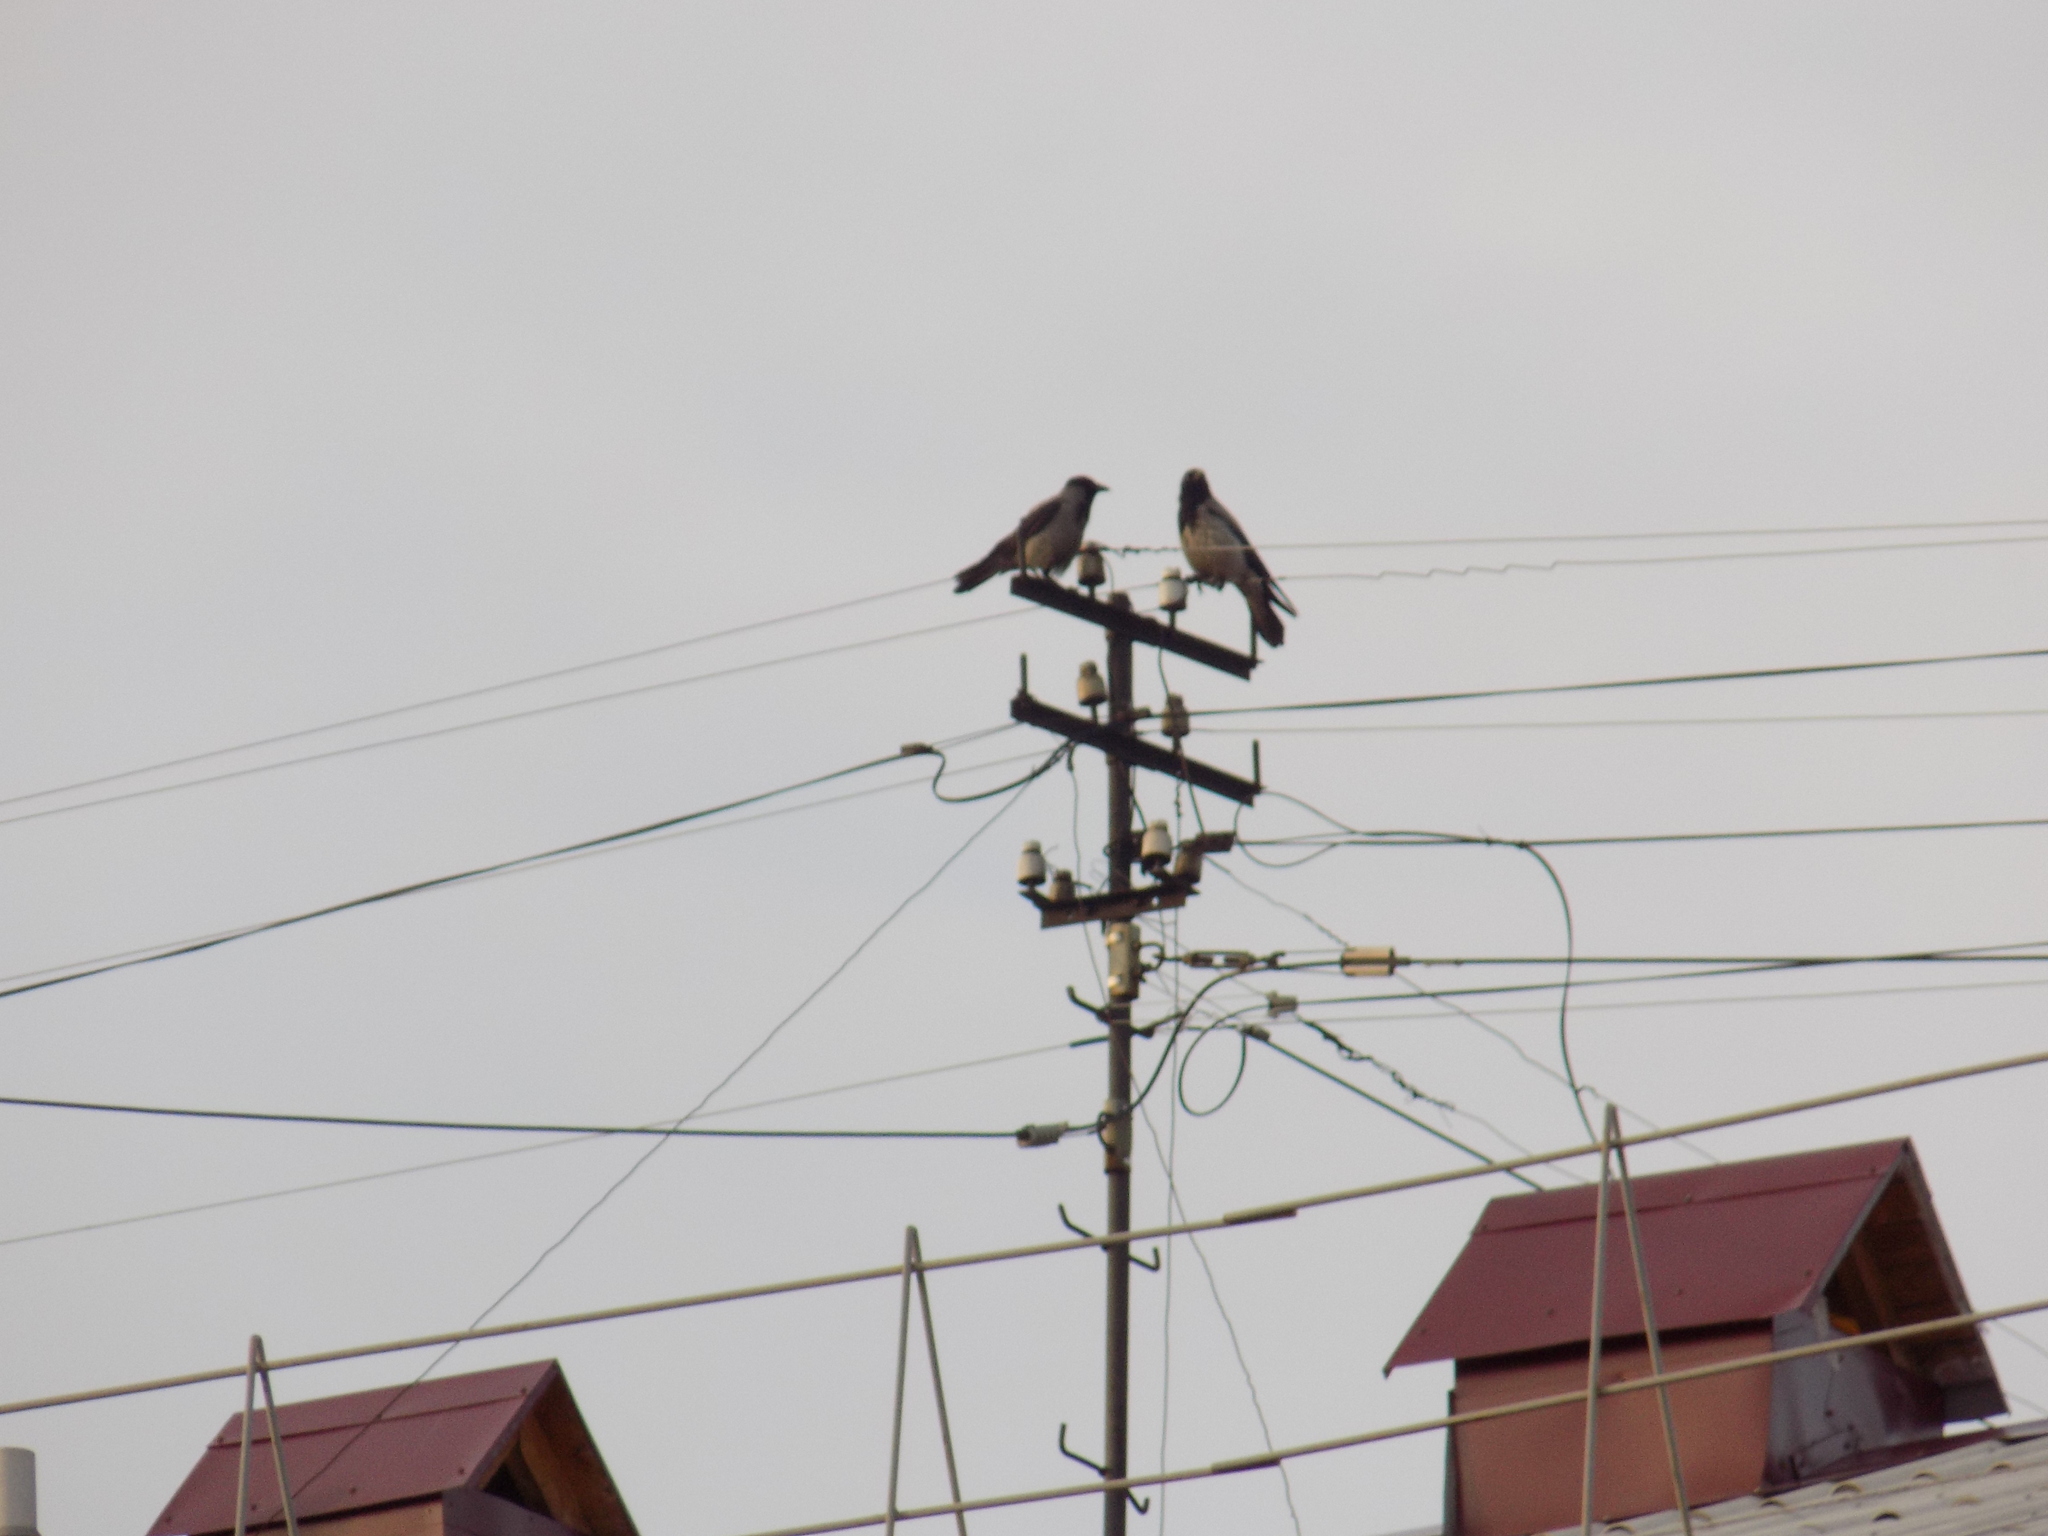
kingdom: Animalia
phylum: Chordata
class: Aves
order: Passeriformes
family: Corvidae
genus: Corvus
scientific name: Corvus cornix
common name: Hooded crow
